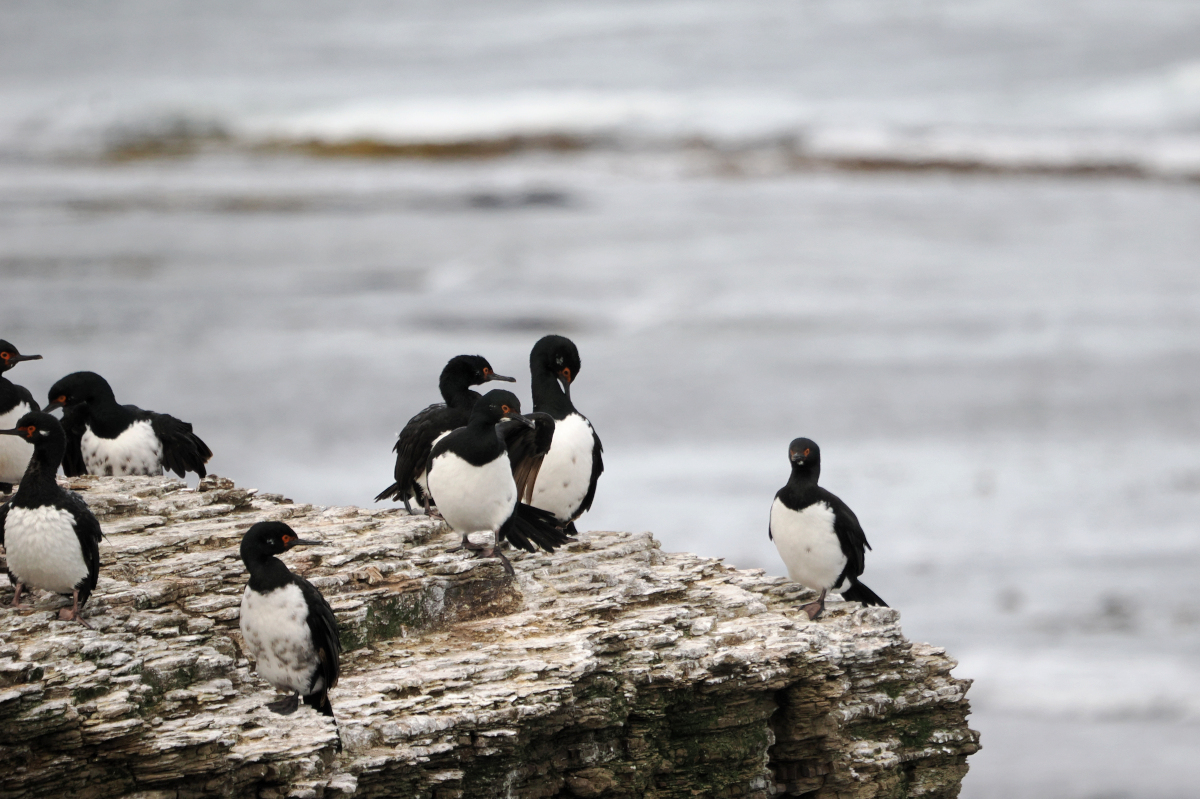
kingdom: Animalia
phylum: Chordata
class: Aves
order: Suliformes
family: Phalacrocoracidae
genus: Phalacrocorax
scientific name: Phalacrocorax magellanicus
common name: Rock shag
